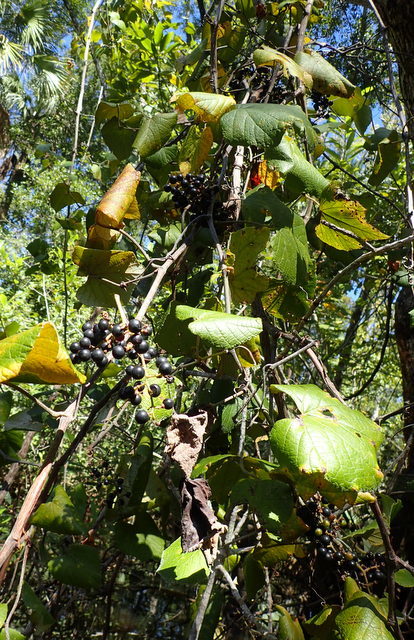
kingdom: Plantae
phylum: Tracheophyta
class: Magnoliopsida
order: Vitales
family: Vitaceae
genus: Vitis
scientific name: Vitis vulpina
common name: Frost grape
